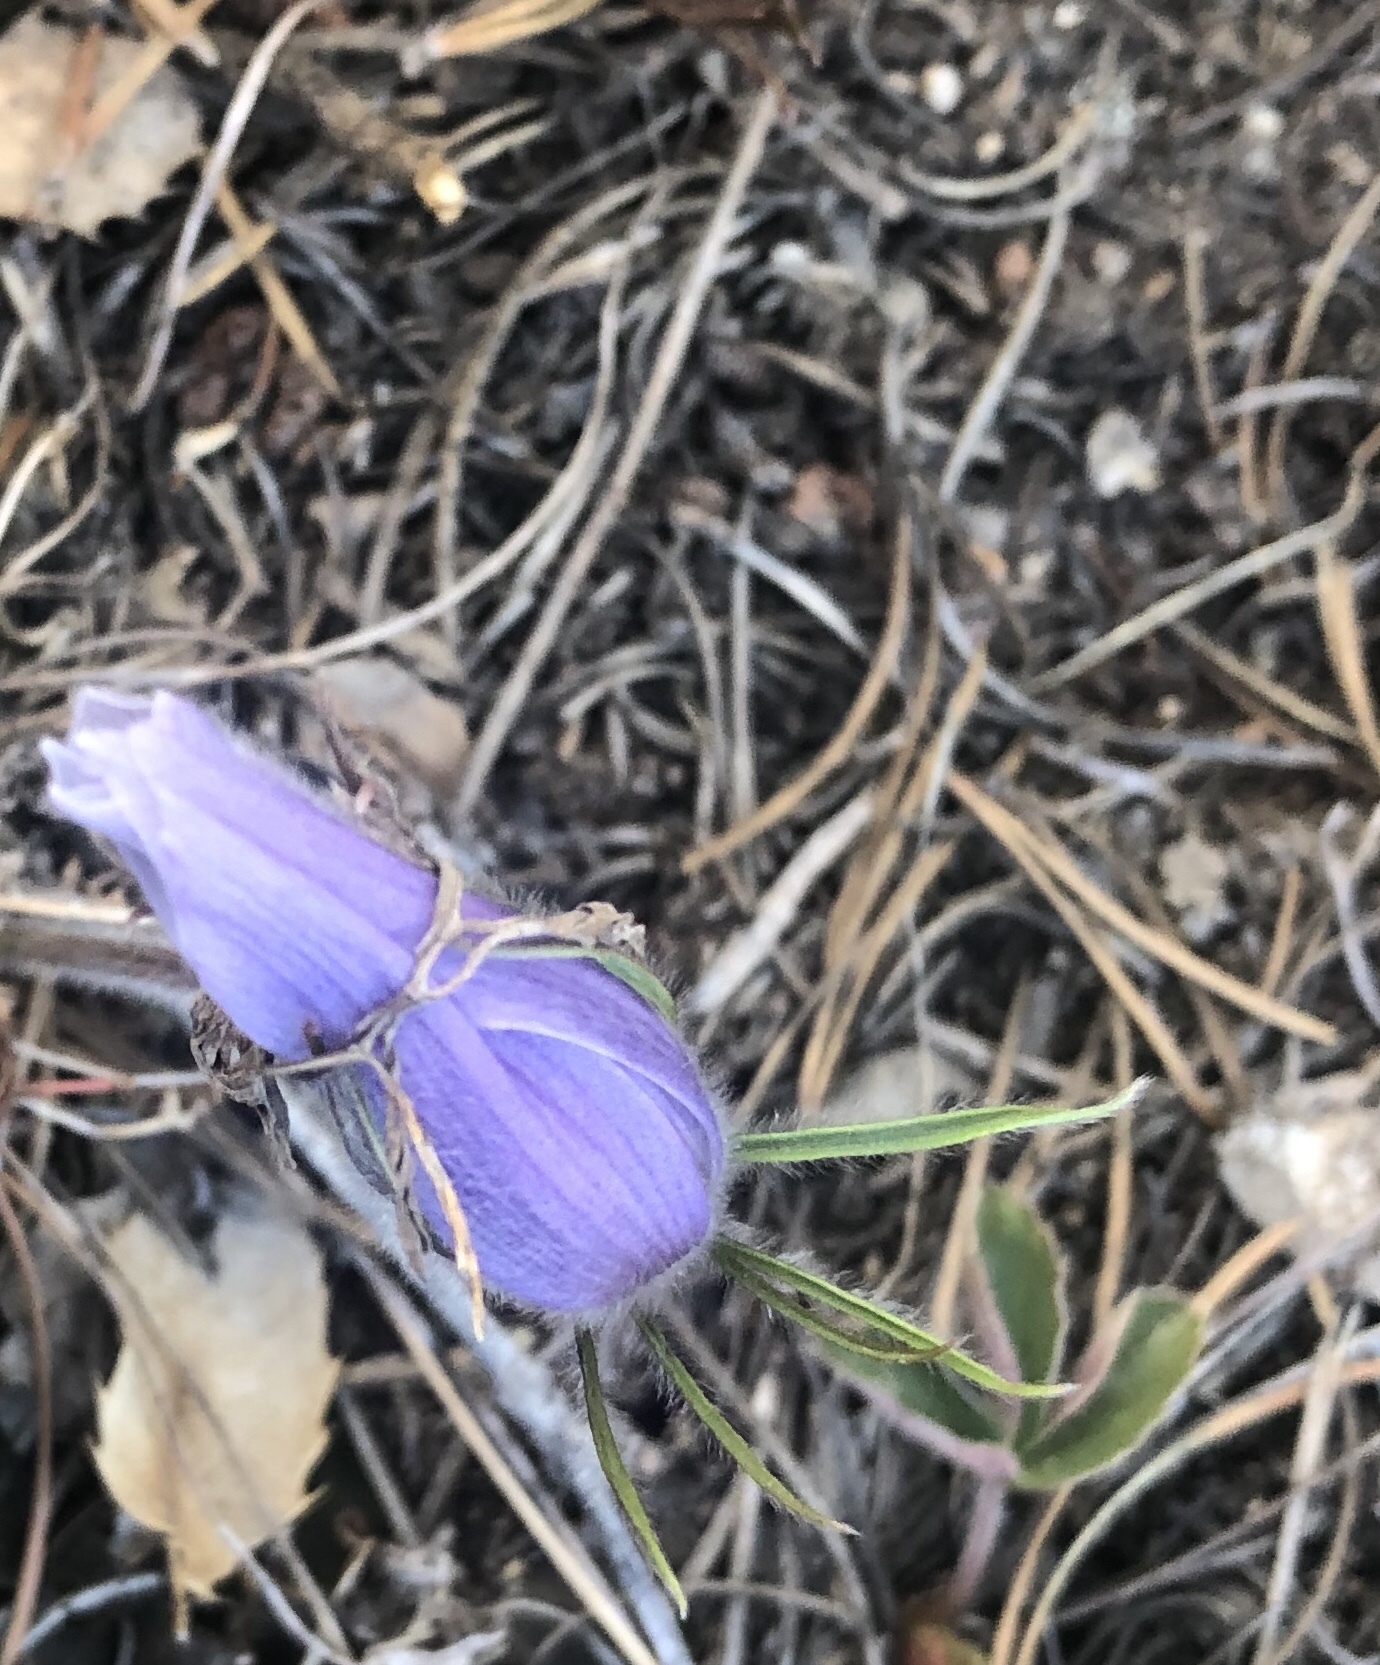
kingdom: Plantae
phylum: Tracheophyta
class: Magnoliopsida
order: Ranunculales
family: Ranunculaceae
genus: Pulsatilla
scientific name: Pulsatilla nuttalliana
